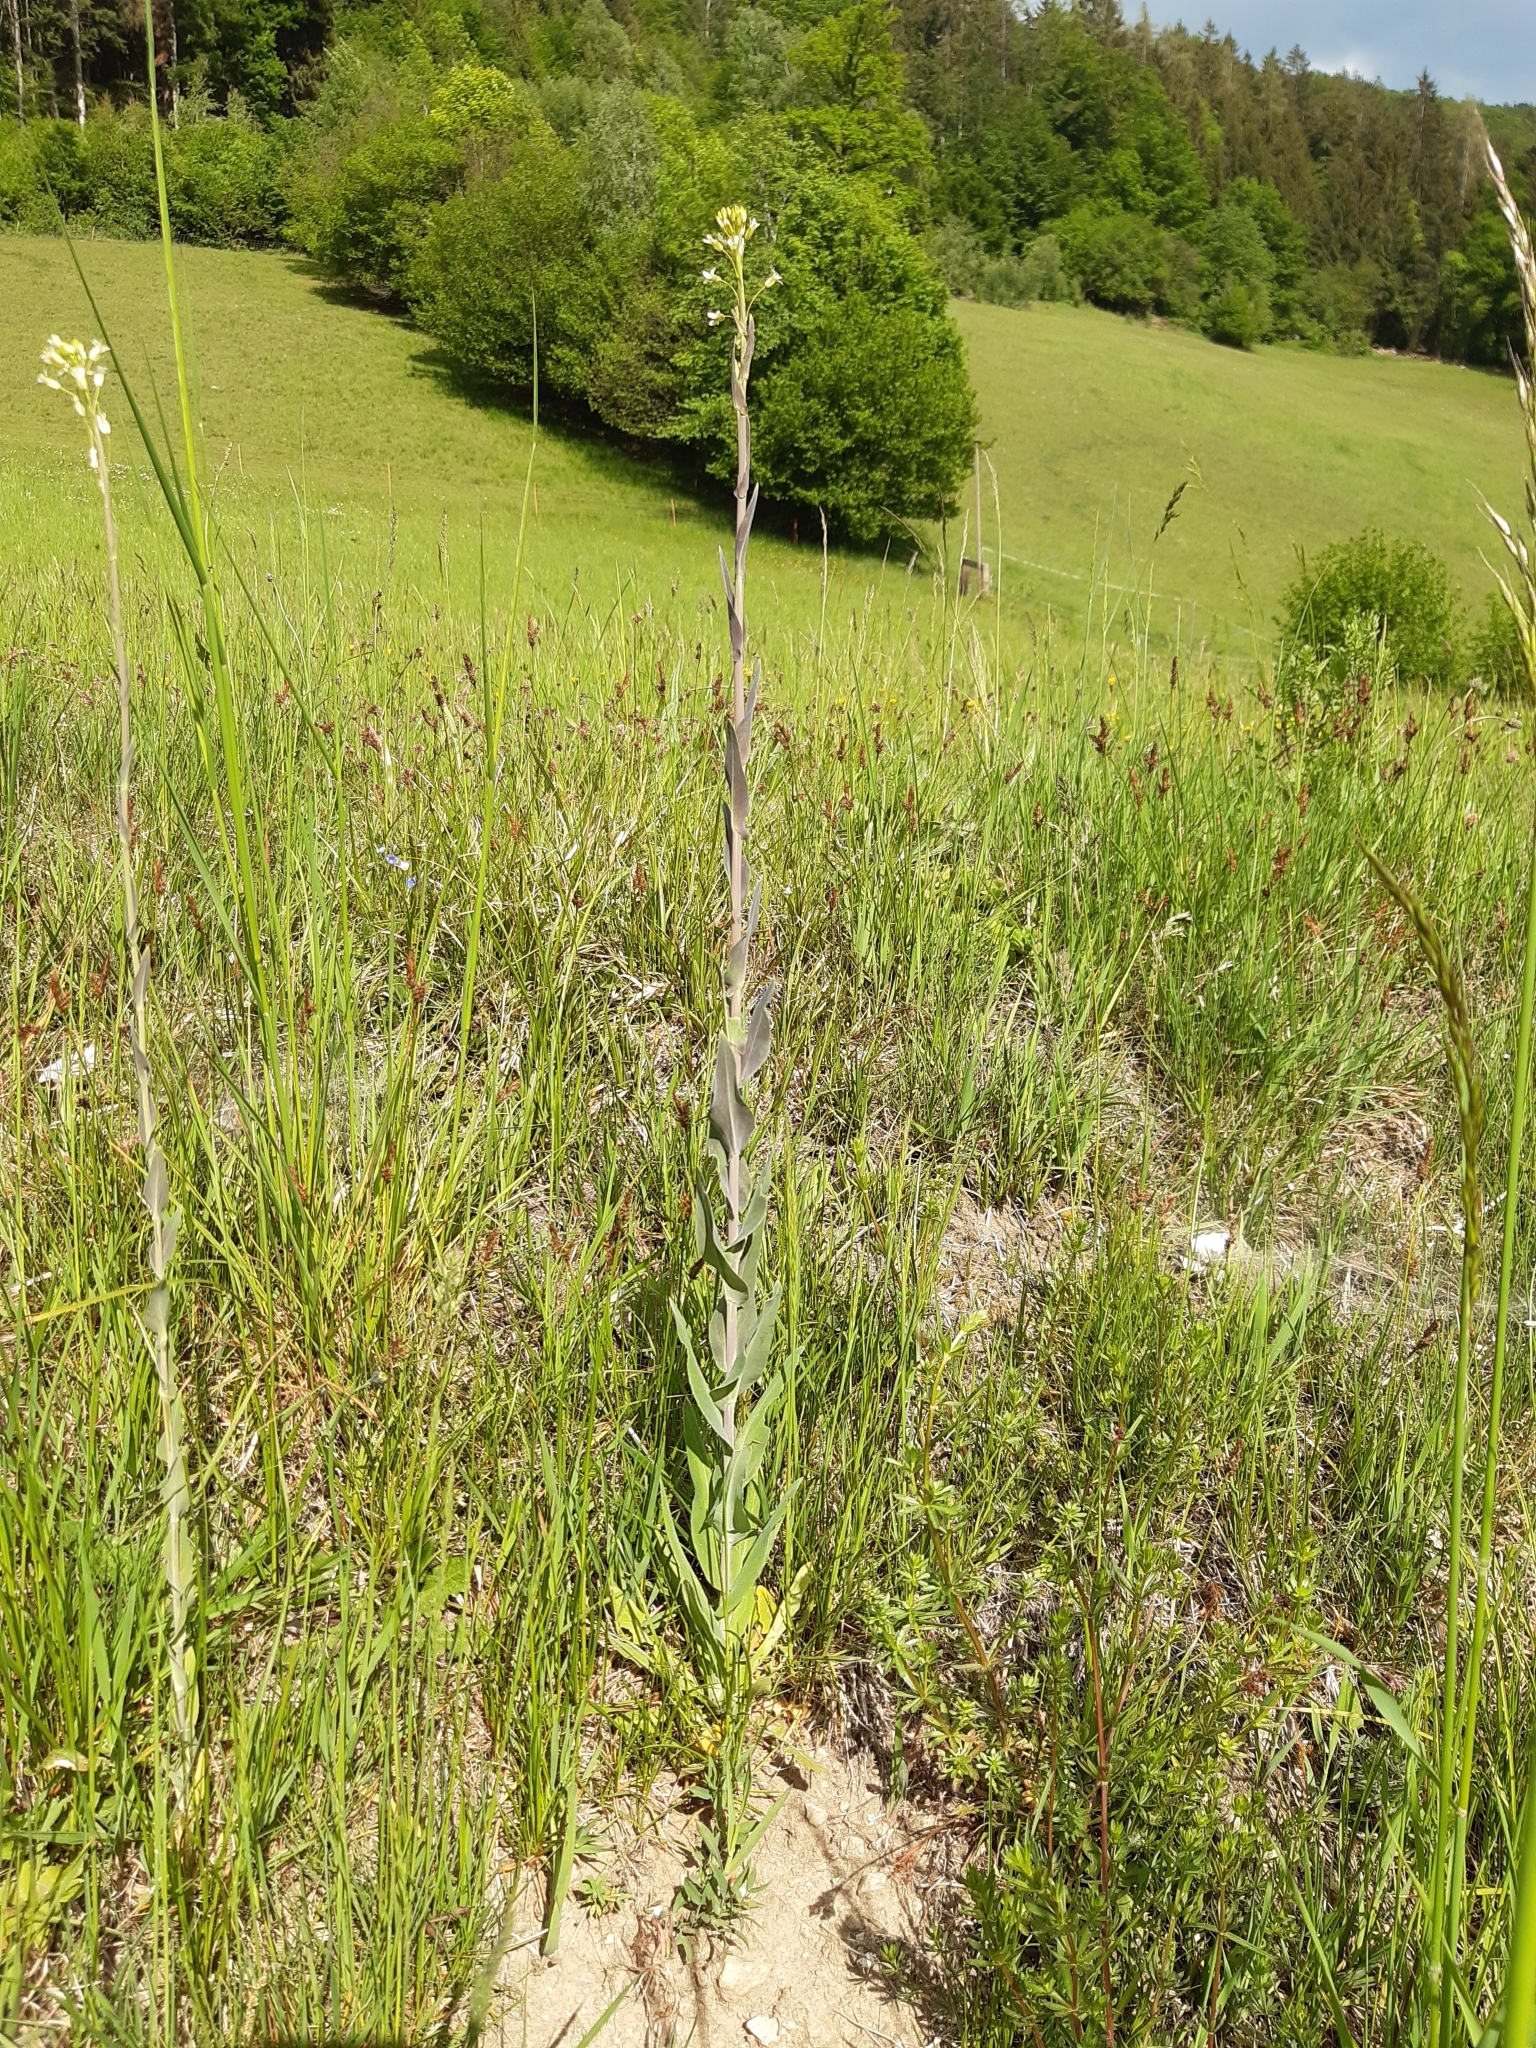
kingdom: Plantae
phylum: Tracheophyta
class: Magnoliopsida
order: Brassicales
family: Brassicaceae
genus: Turritis
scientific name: Turritis glabra
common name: Tower rockcress
